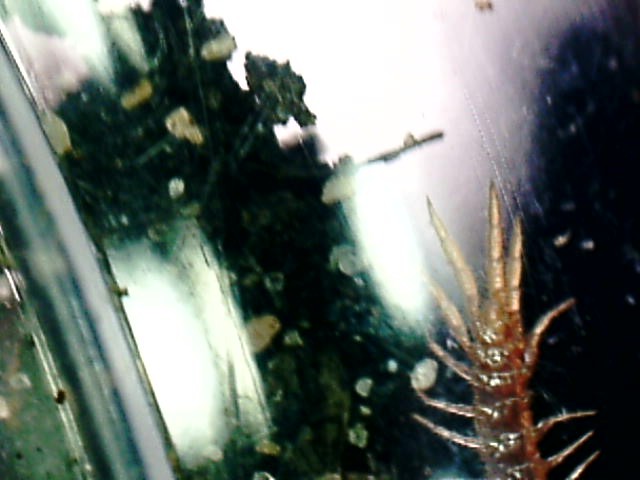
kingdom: Animalia
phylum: Arthropoda
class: Chilopoda
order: Lithobiomorpha
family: Lithobiidae
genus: Lithobius
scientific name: Lithobius microps
